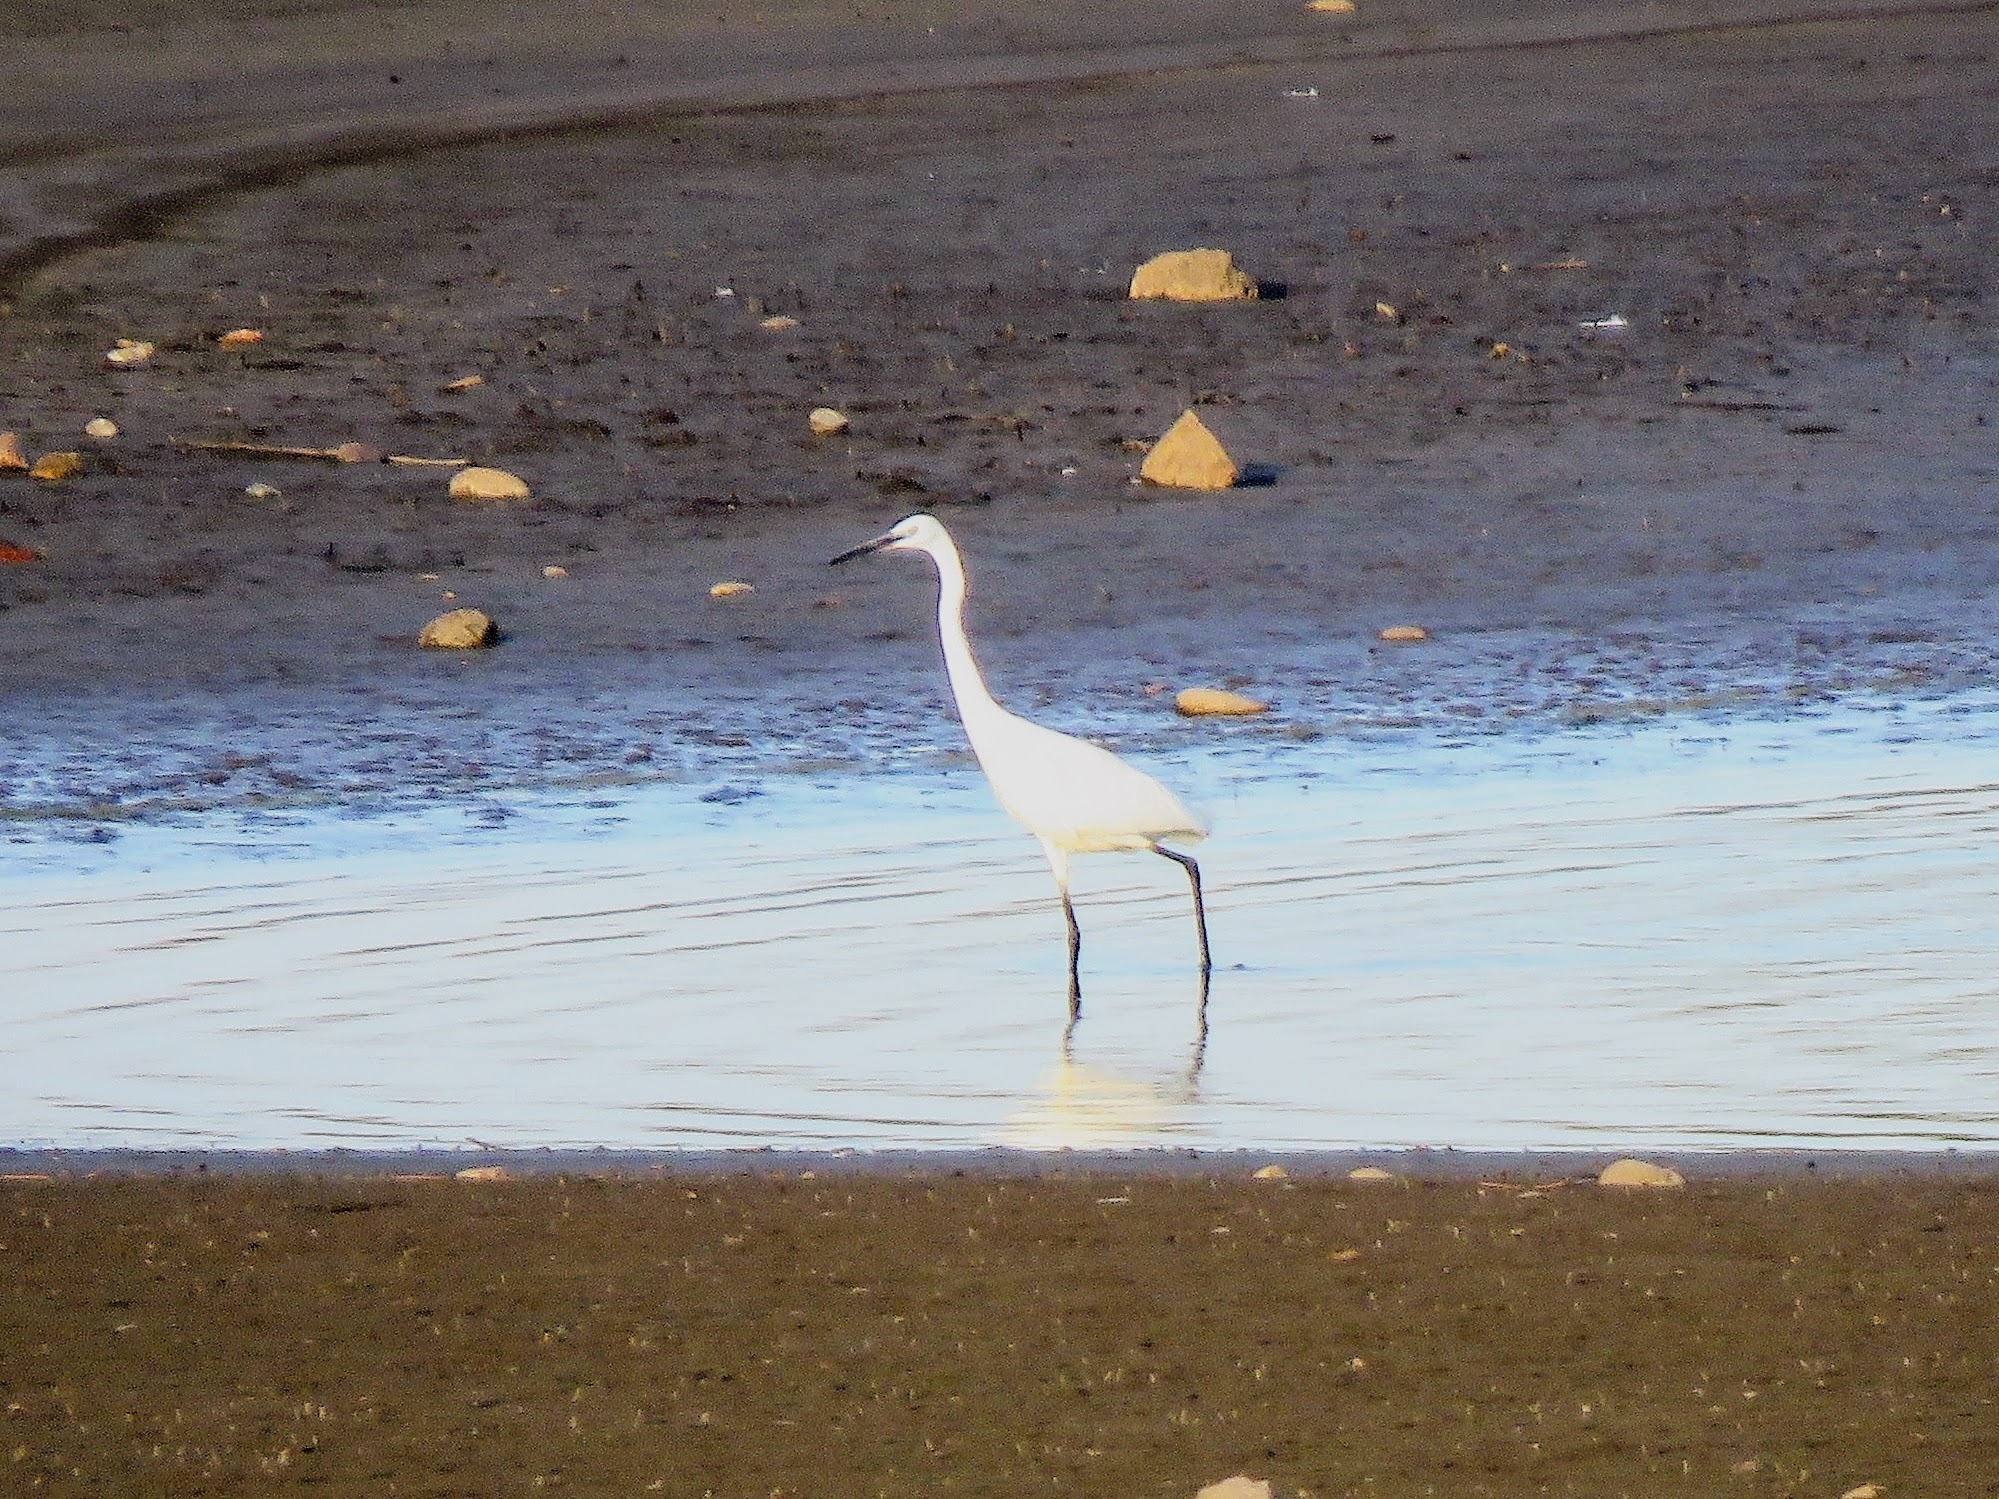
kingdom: Animalia
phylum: Chordata
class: Aves
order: Pelecaniformes
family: Ardeidae
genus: Egretta
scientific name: Egretta garzetta
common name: Little egret
